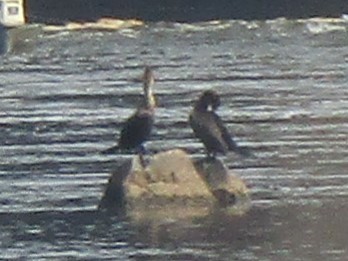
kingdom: Animalia
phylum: Chordata
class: Aves
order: Suliformes
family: Phalacrocoracidae
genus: Phalacrocorax
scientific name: Phalacrocorax auritus
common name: Double-crested cormorant
